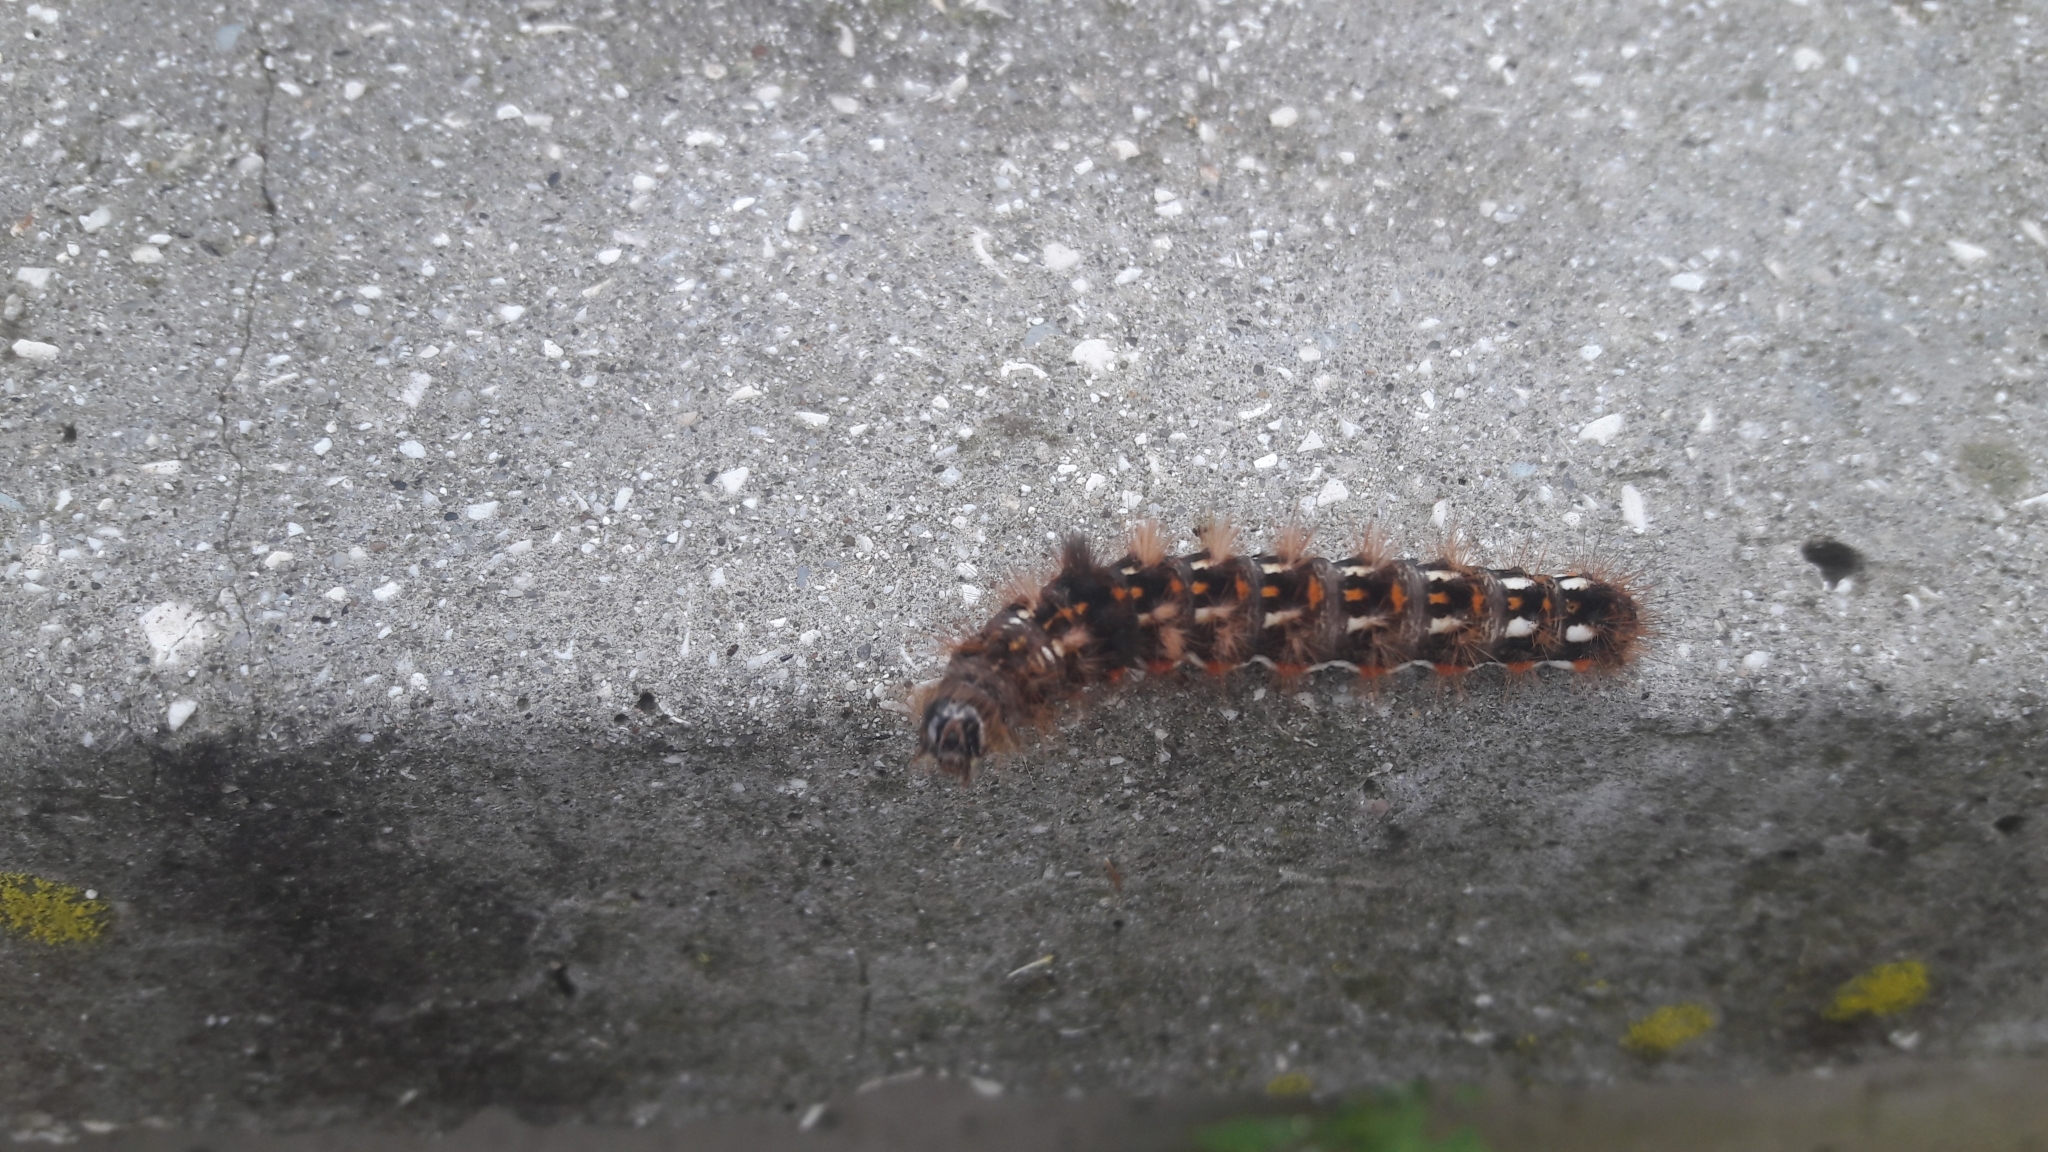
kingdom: Animalia
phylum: Arthropoda
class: Insecta
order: Lepidoptera
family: Noctuidae
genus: Acronicta
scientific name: Acronicta rumicis
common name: Knot grass
